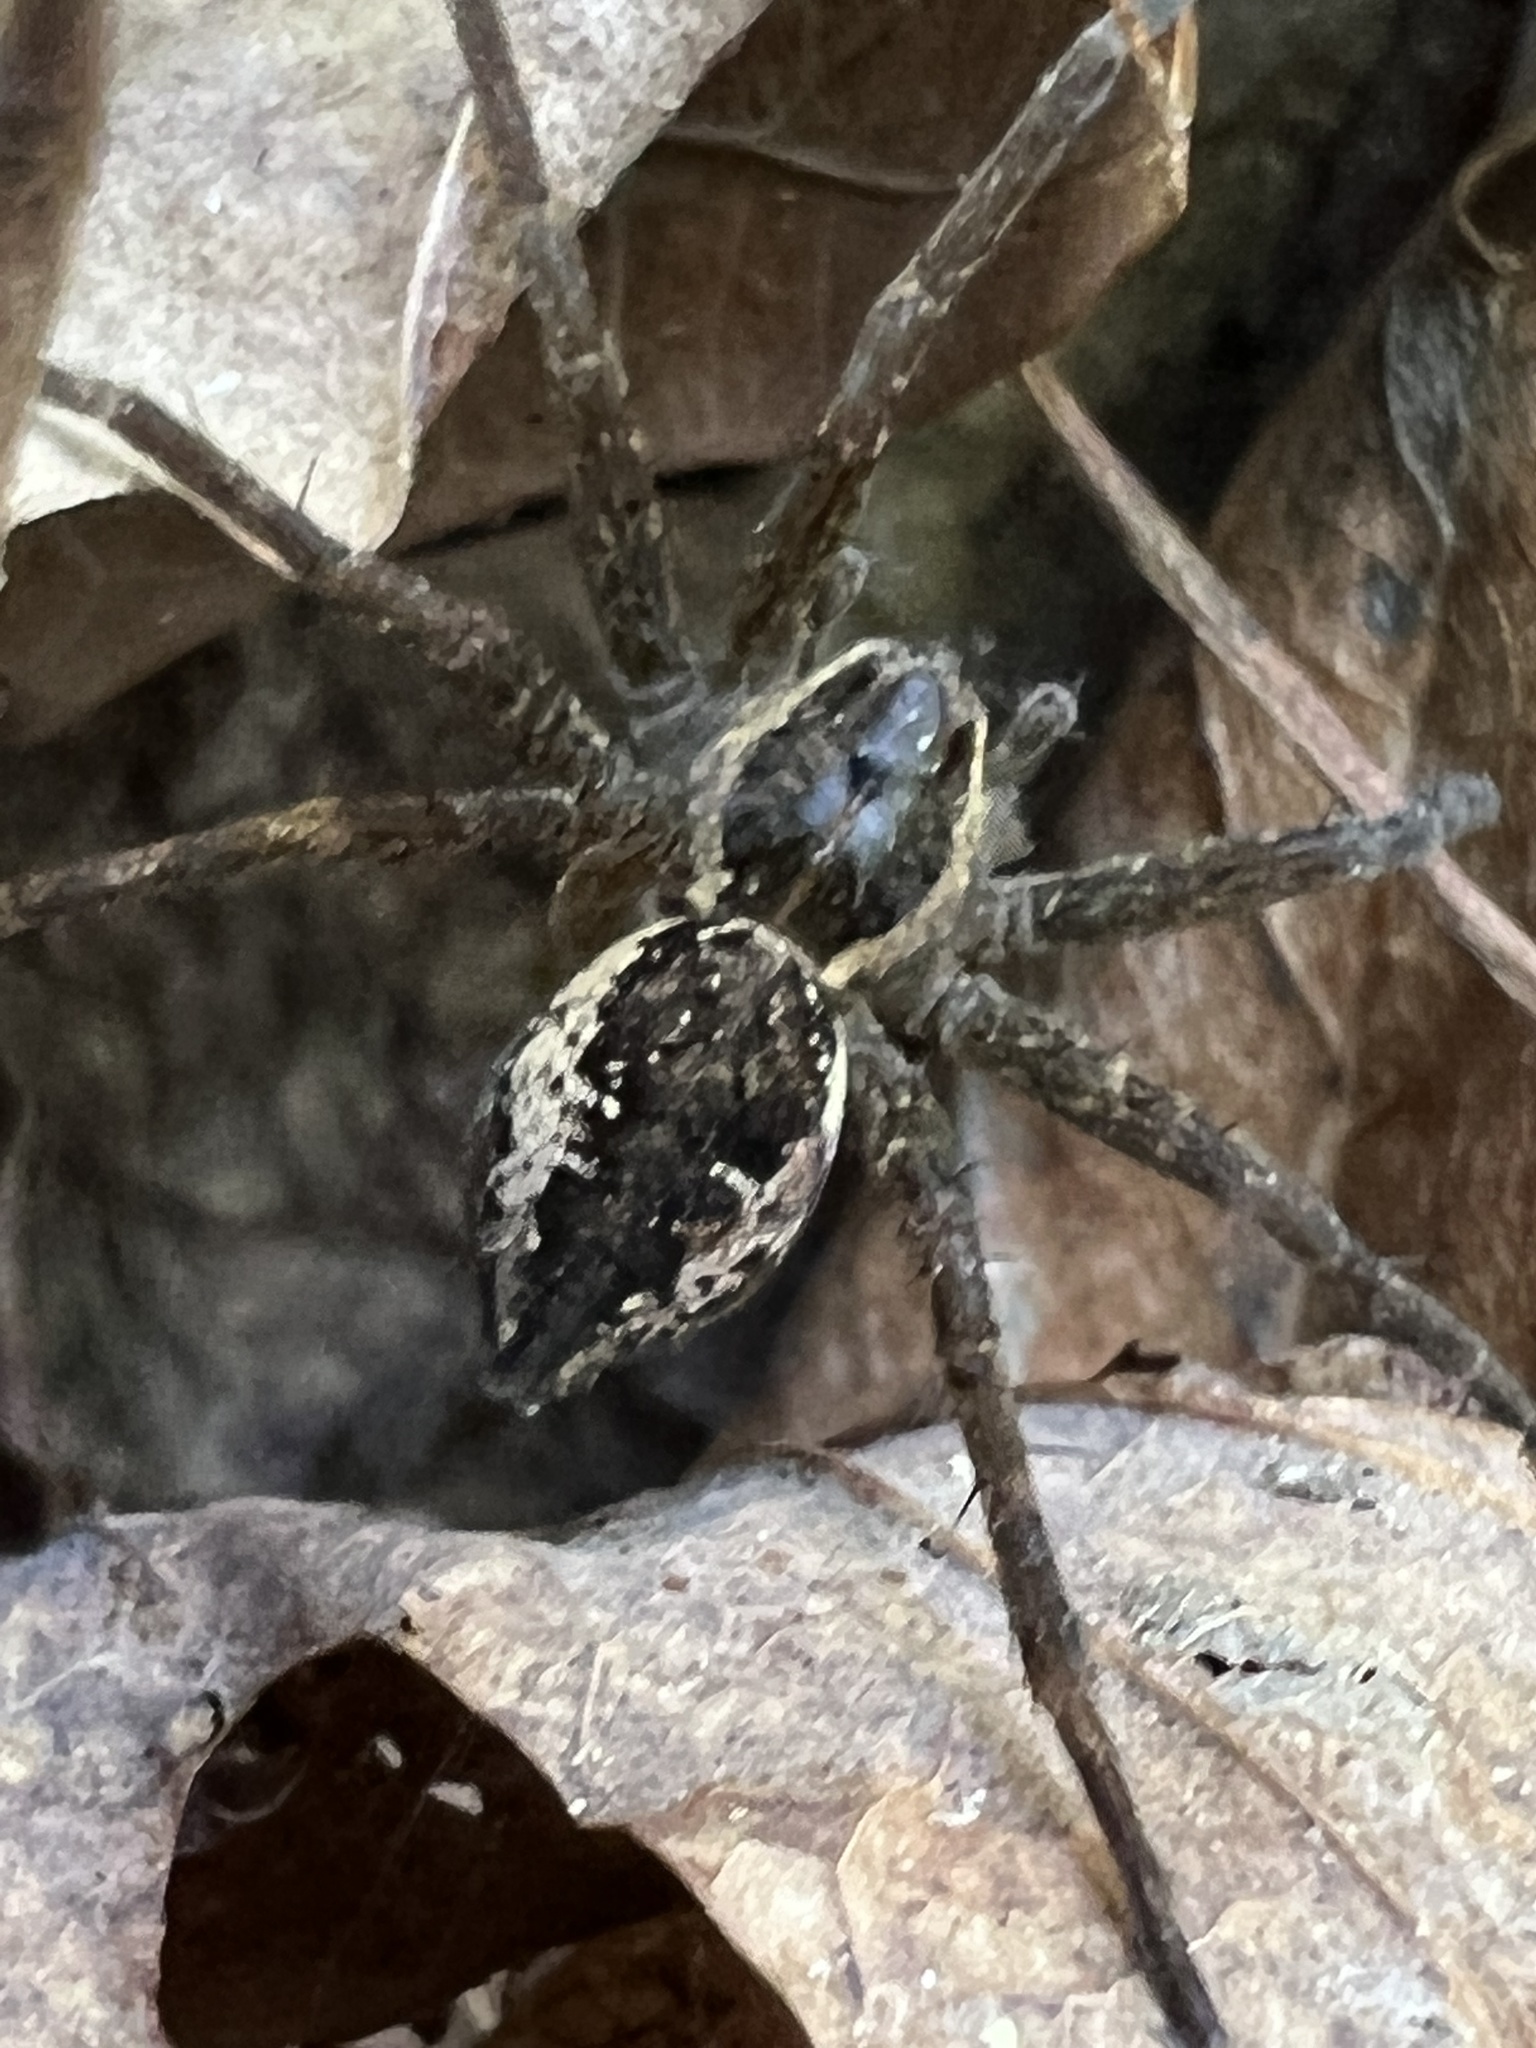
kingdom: Animalia
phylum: Arthropoda
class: Arachnida
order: Araneae
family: Pisauridae
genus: Dolomedes
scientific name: Dolomedes vittatus
